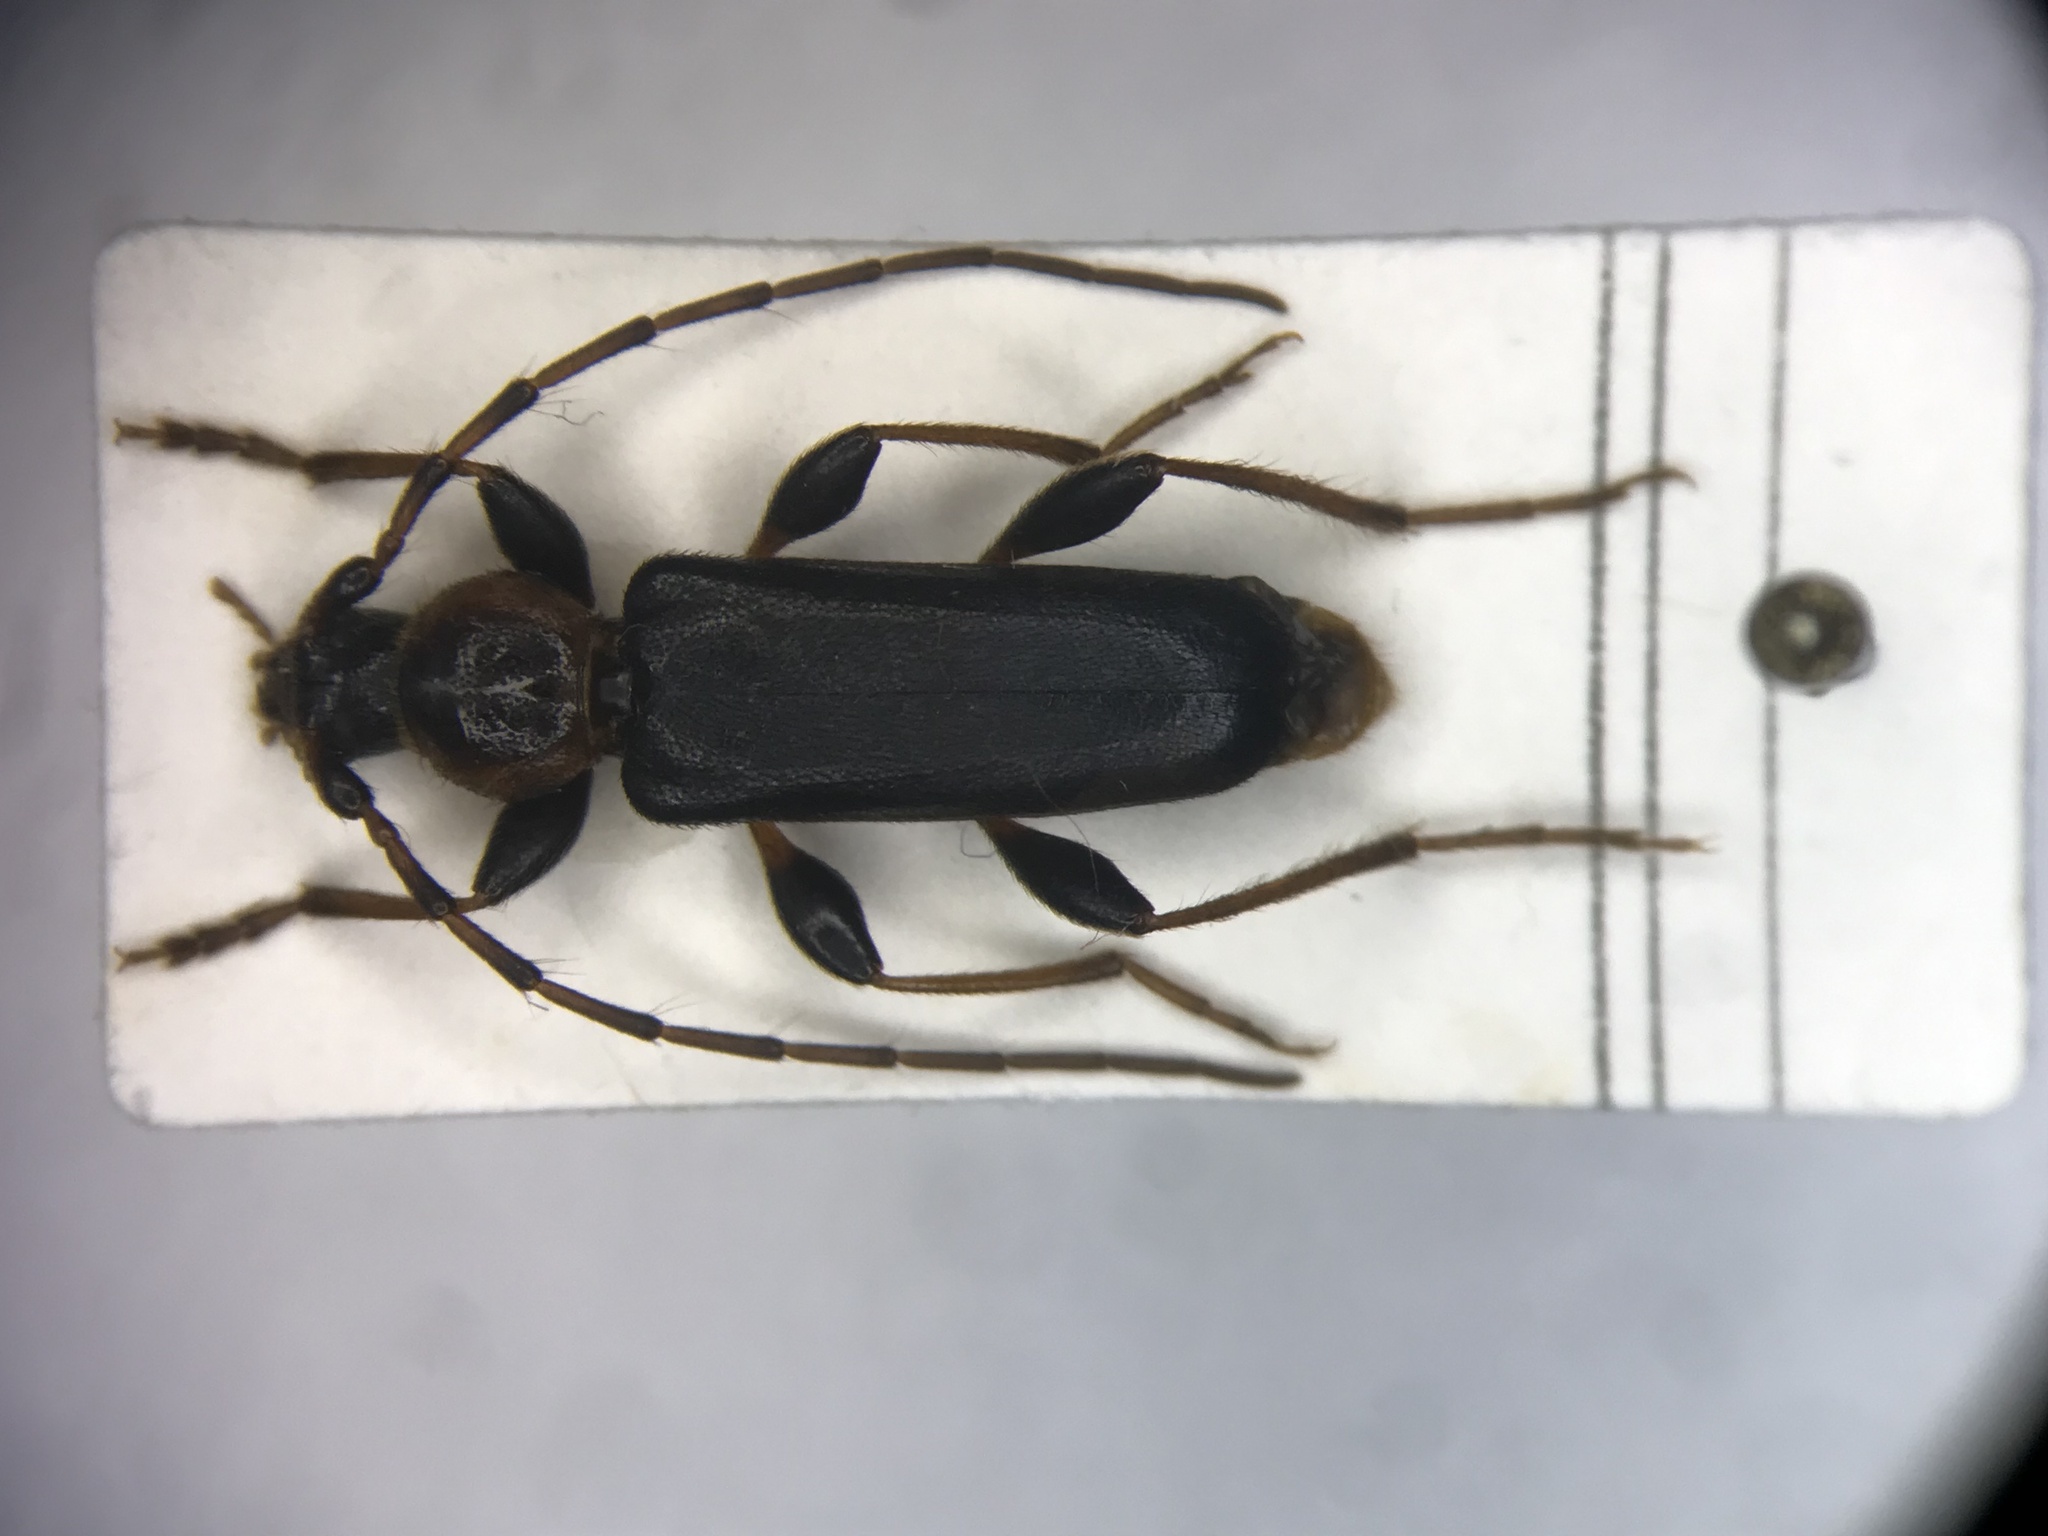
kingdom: Animalia
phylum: Arthropoda
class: Insecta
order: Coleoptera
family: Cerambycidae
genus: Phymatodes
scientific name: Phymatodes testaceus
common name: Long-horned beetle
